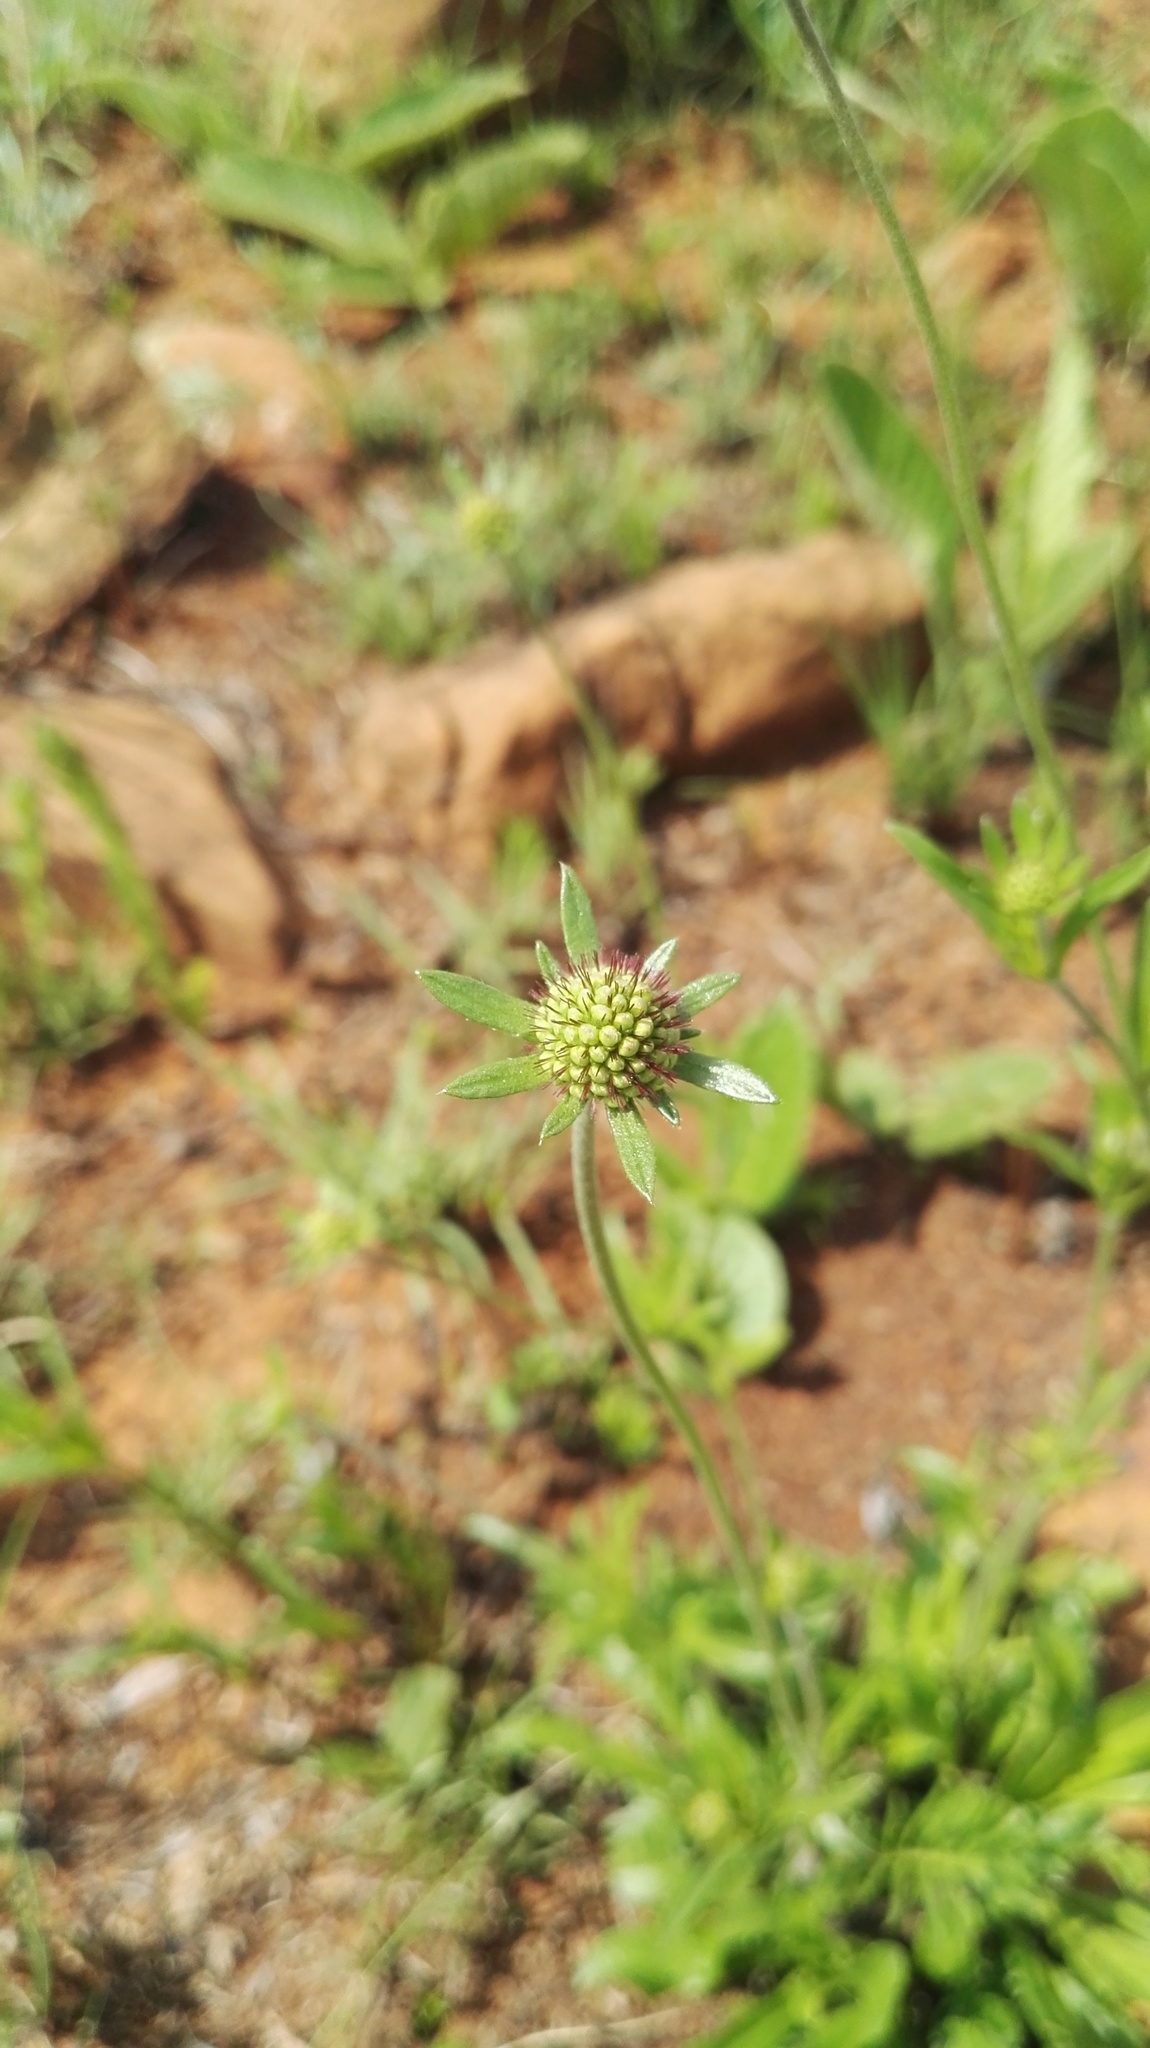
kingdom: Plantae
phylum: Tracheophyta
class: Magnoliopsida
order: Dipsacales
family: Caprifoliaceae
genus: Scabiosa
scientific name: Scabiosa columbaria
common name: Small scabious
